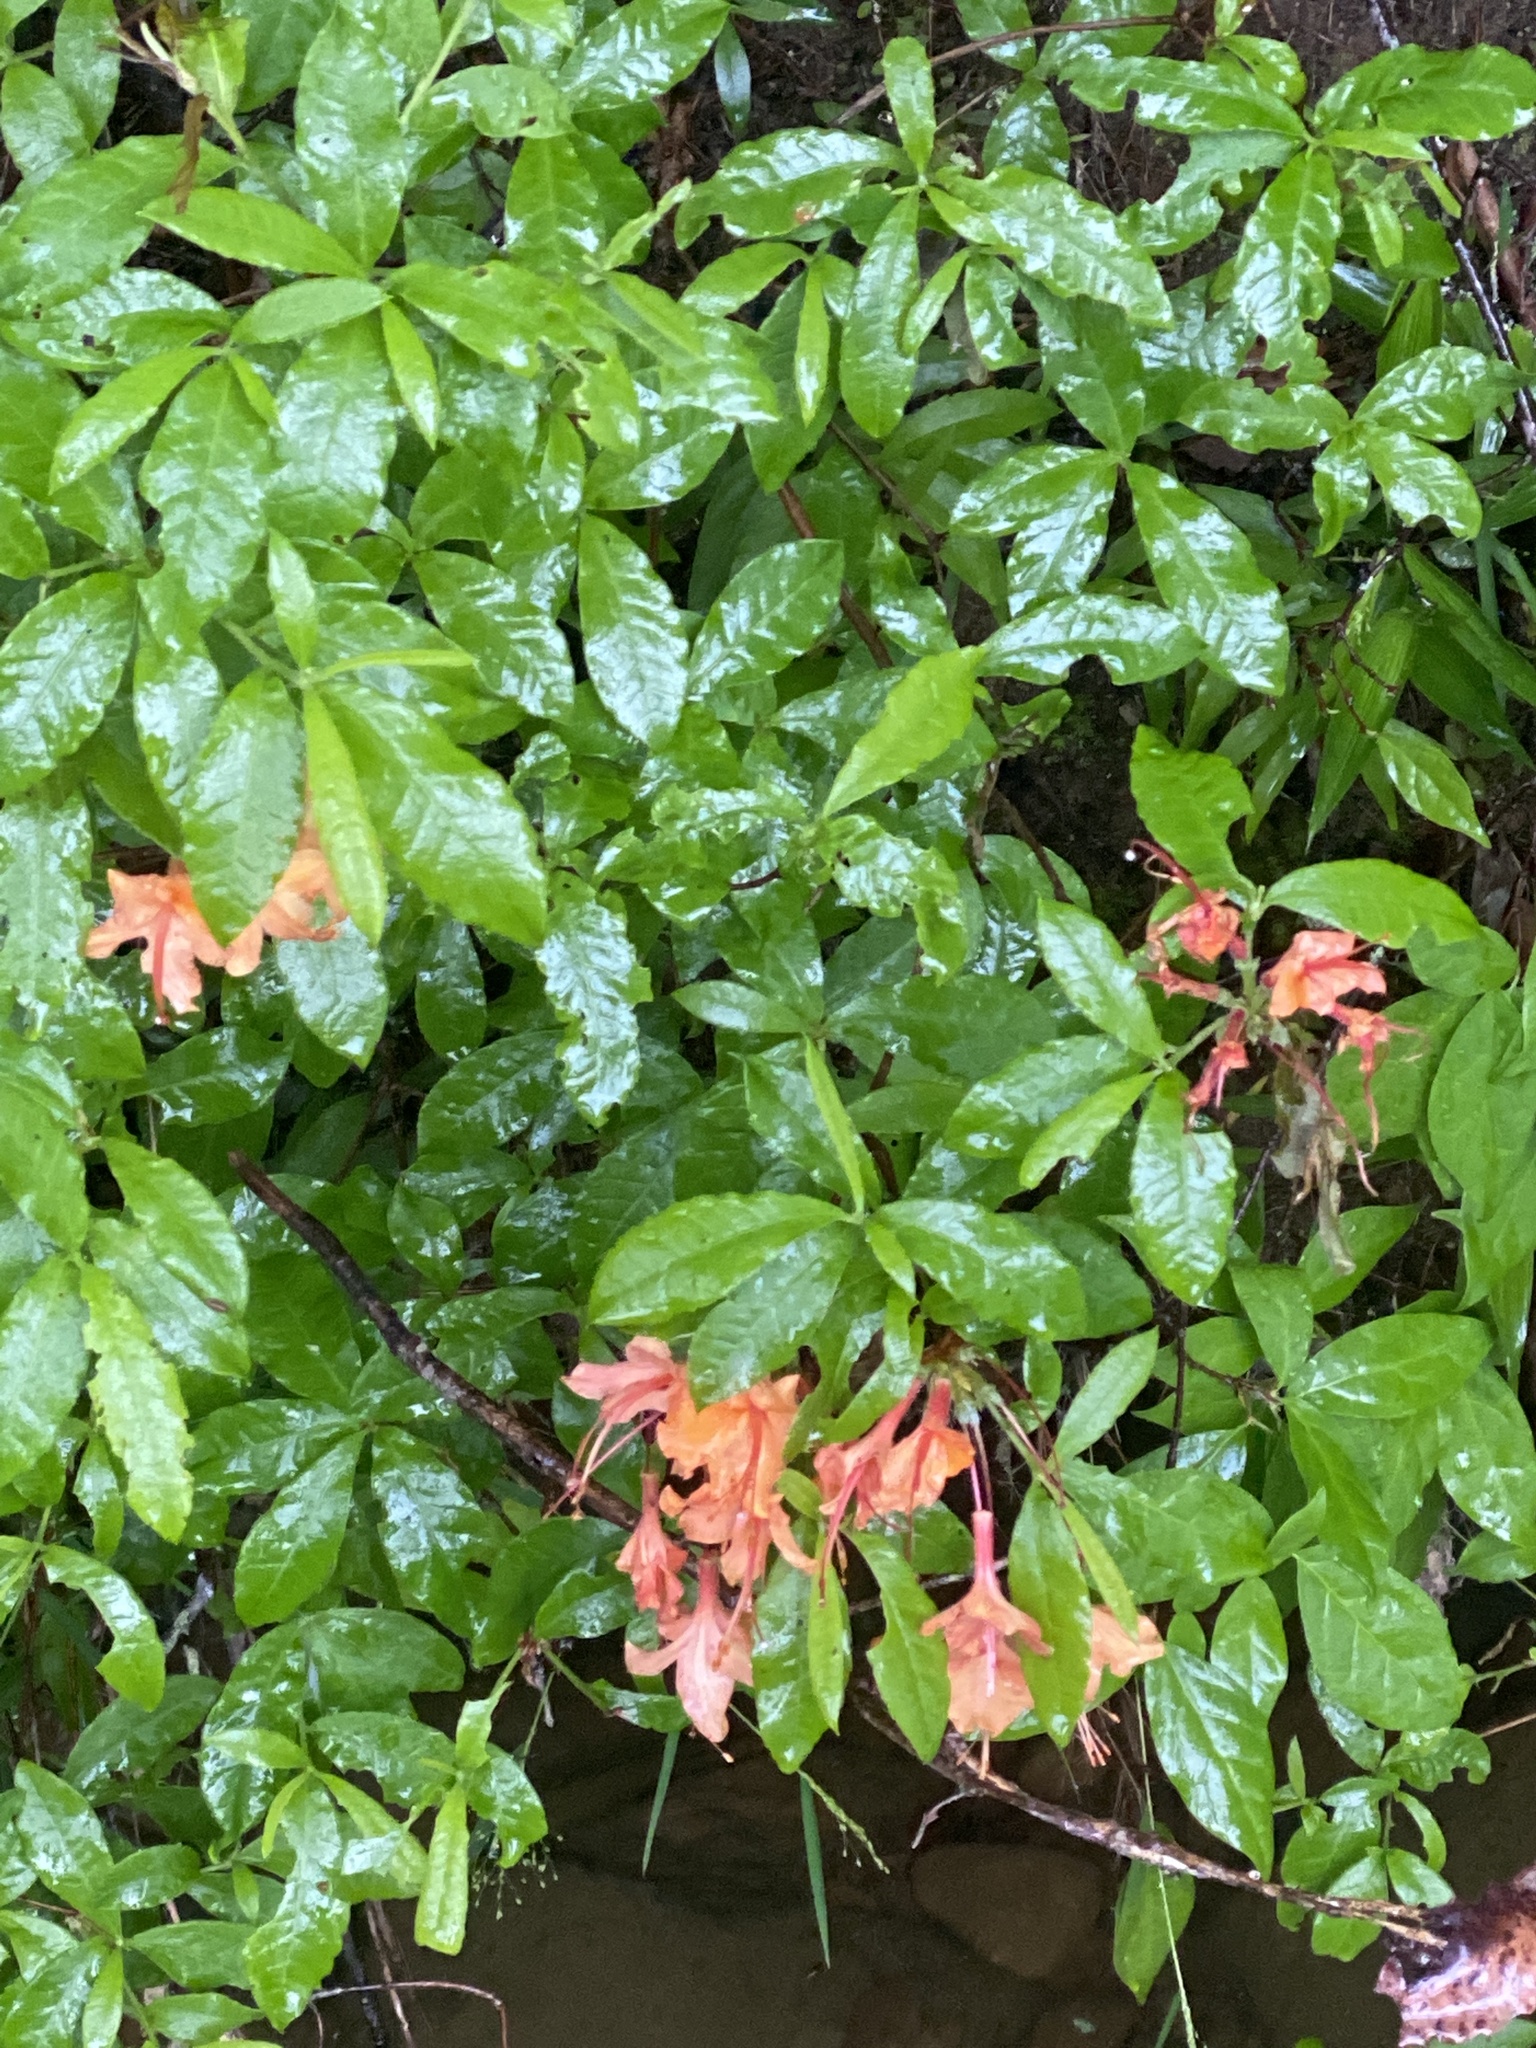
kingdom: Plantae
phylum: Tracheophyta
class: Magnoliopsida
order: Ericales
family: Ericaceae
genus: Rhododendron
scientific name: Rhododendron calendulaceum
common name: Flame azalea
